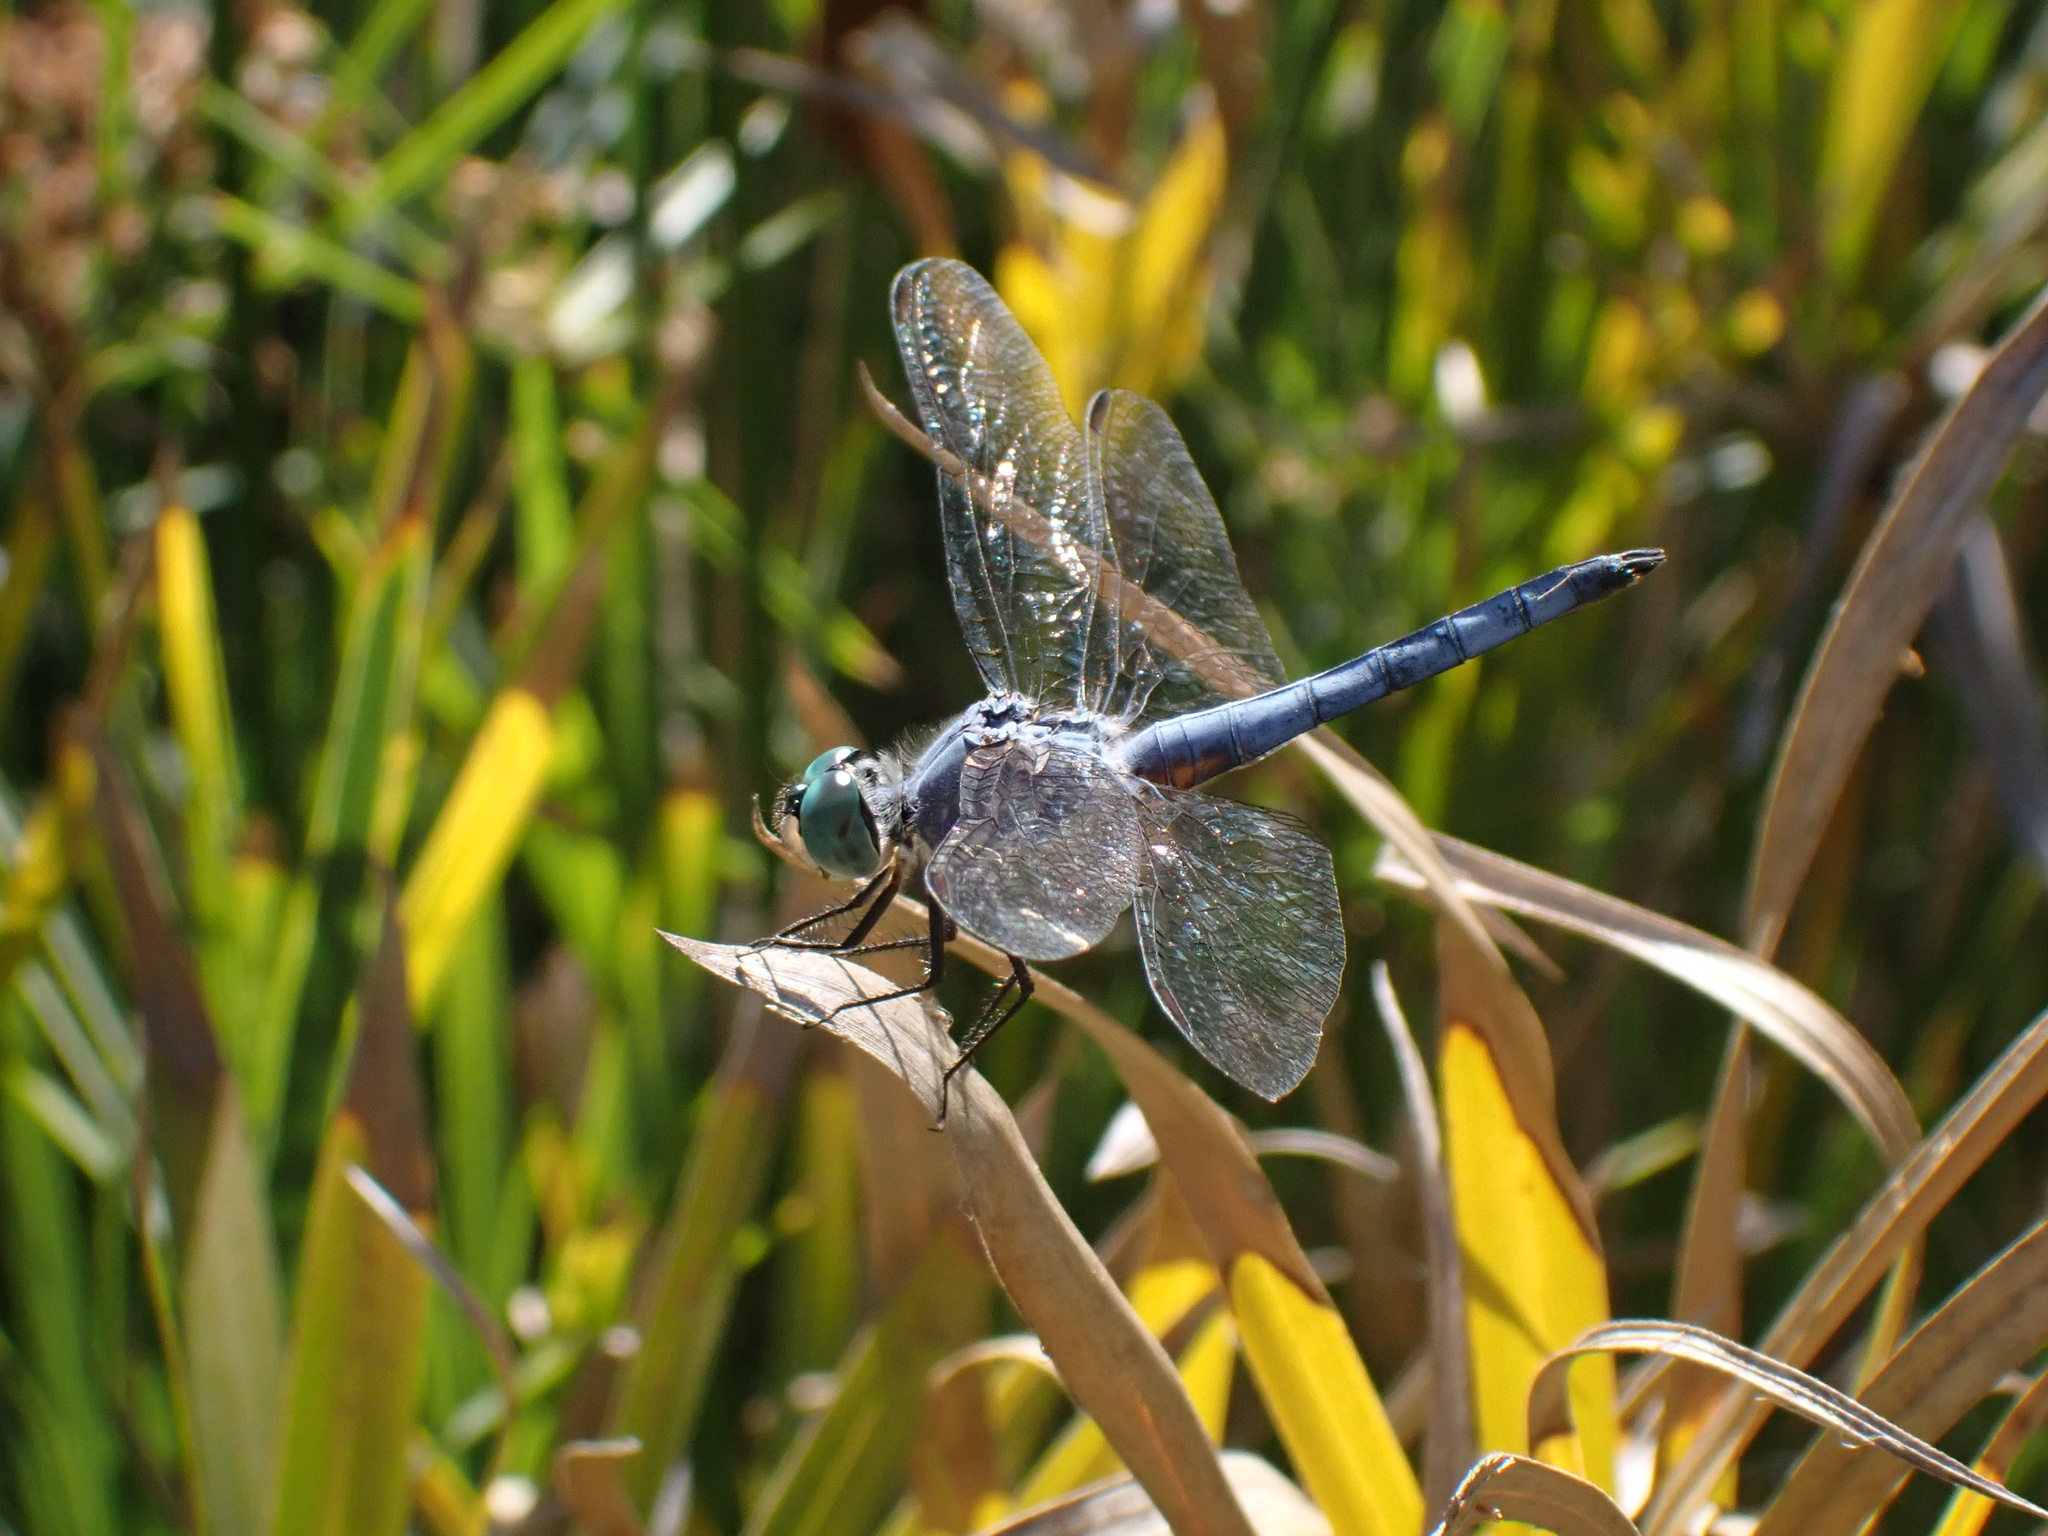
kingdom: Animalia
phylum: Arthropoda
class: Insecta
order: Odonata
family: Libellulidae
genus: Pachydiplax
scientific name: Pachydiplax longipennis
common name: Blue dasher
